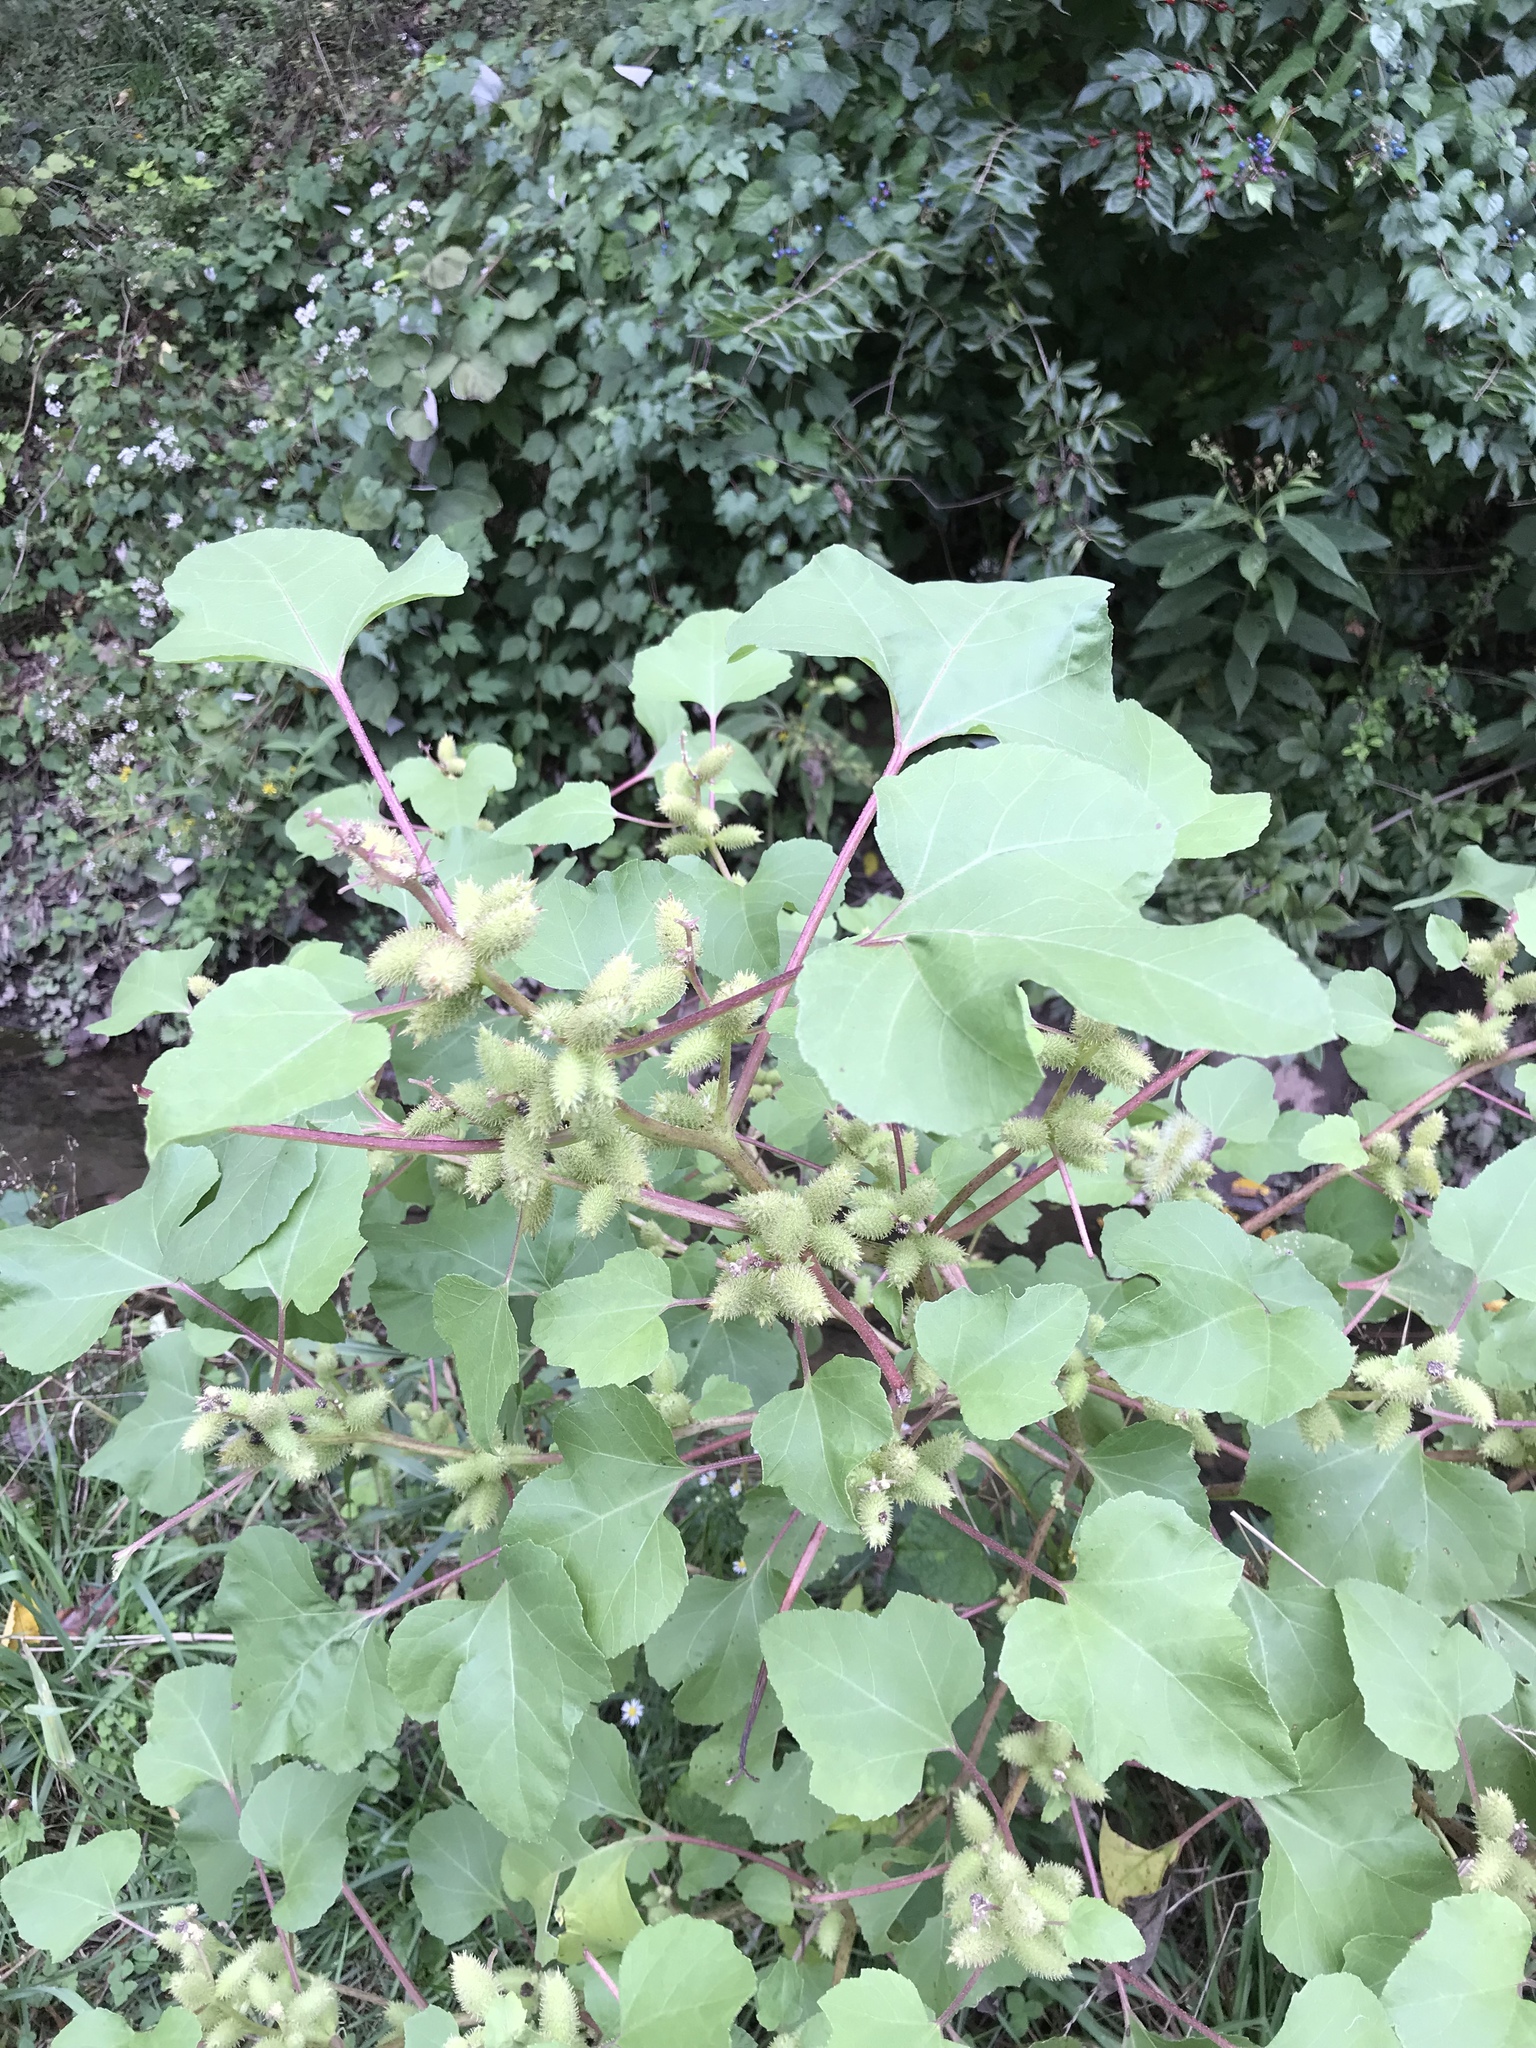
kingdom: Plantae
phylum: Tracheophyta
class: Magnoliopsida
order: Asterales
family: Asteraceae
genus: Xanthium
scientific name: Xanthium strumarium
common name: Rough cocklebur
